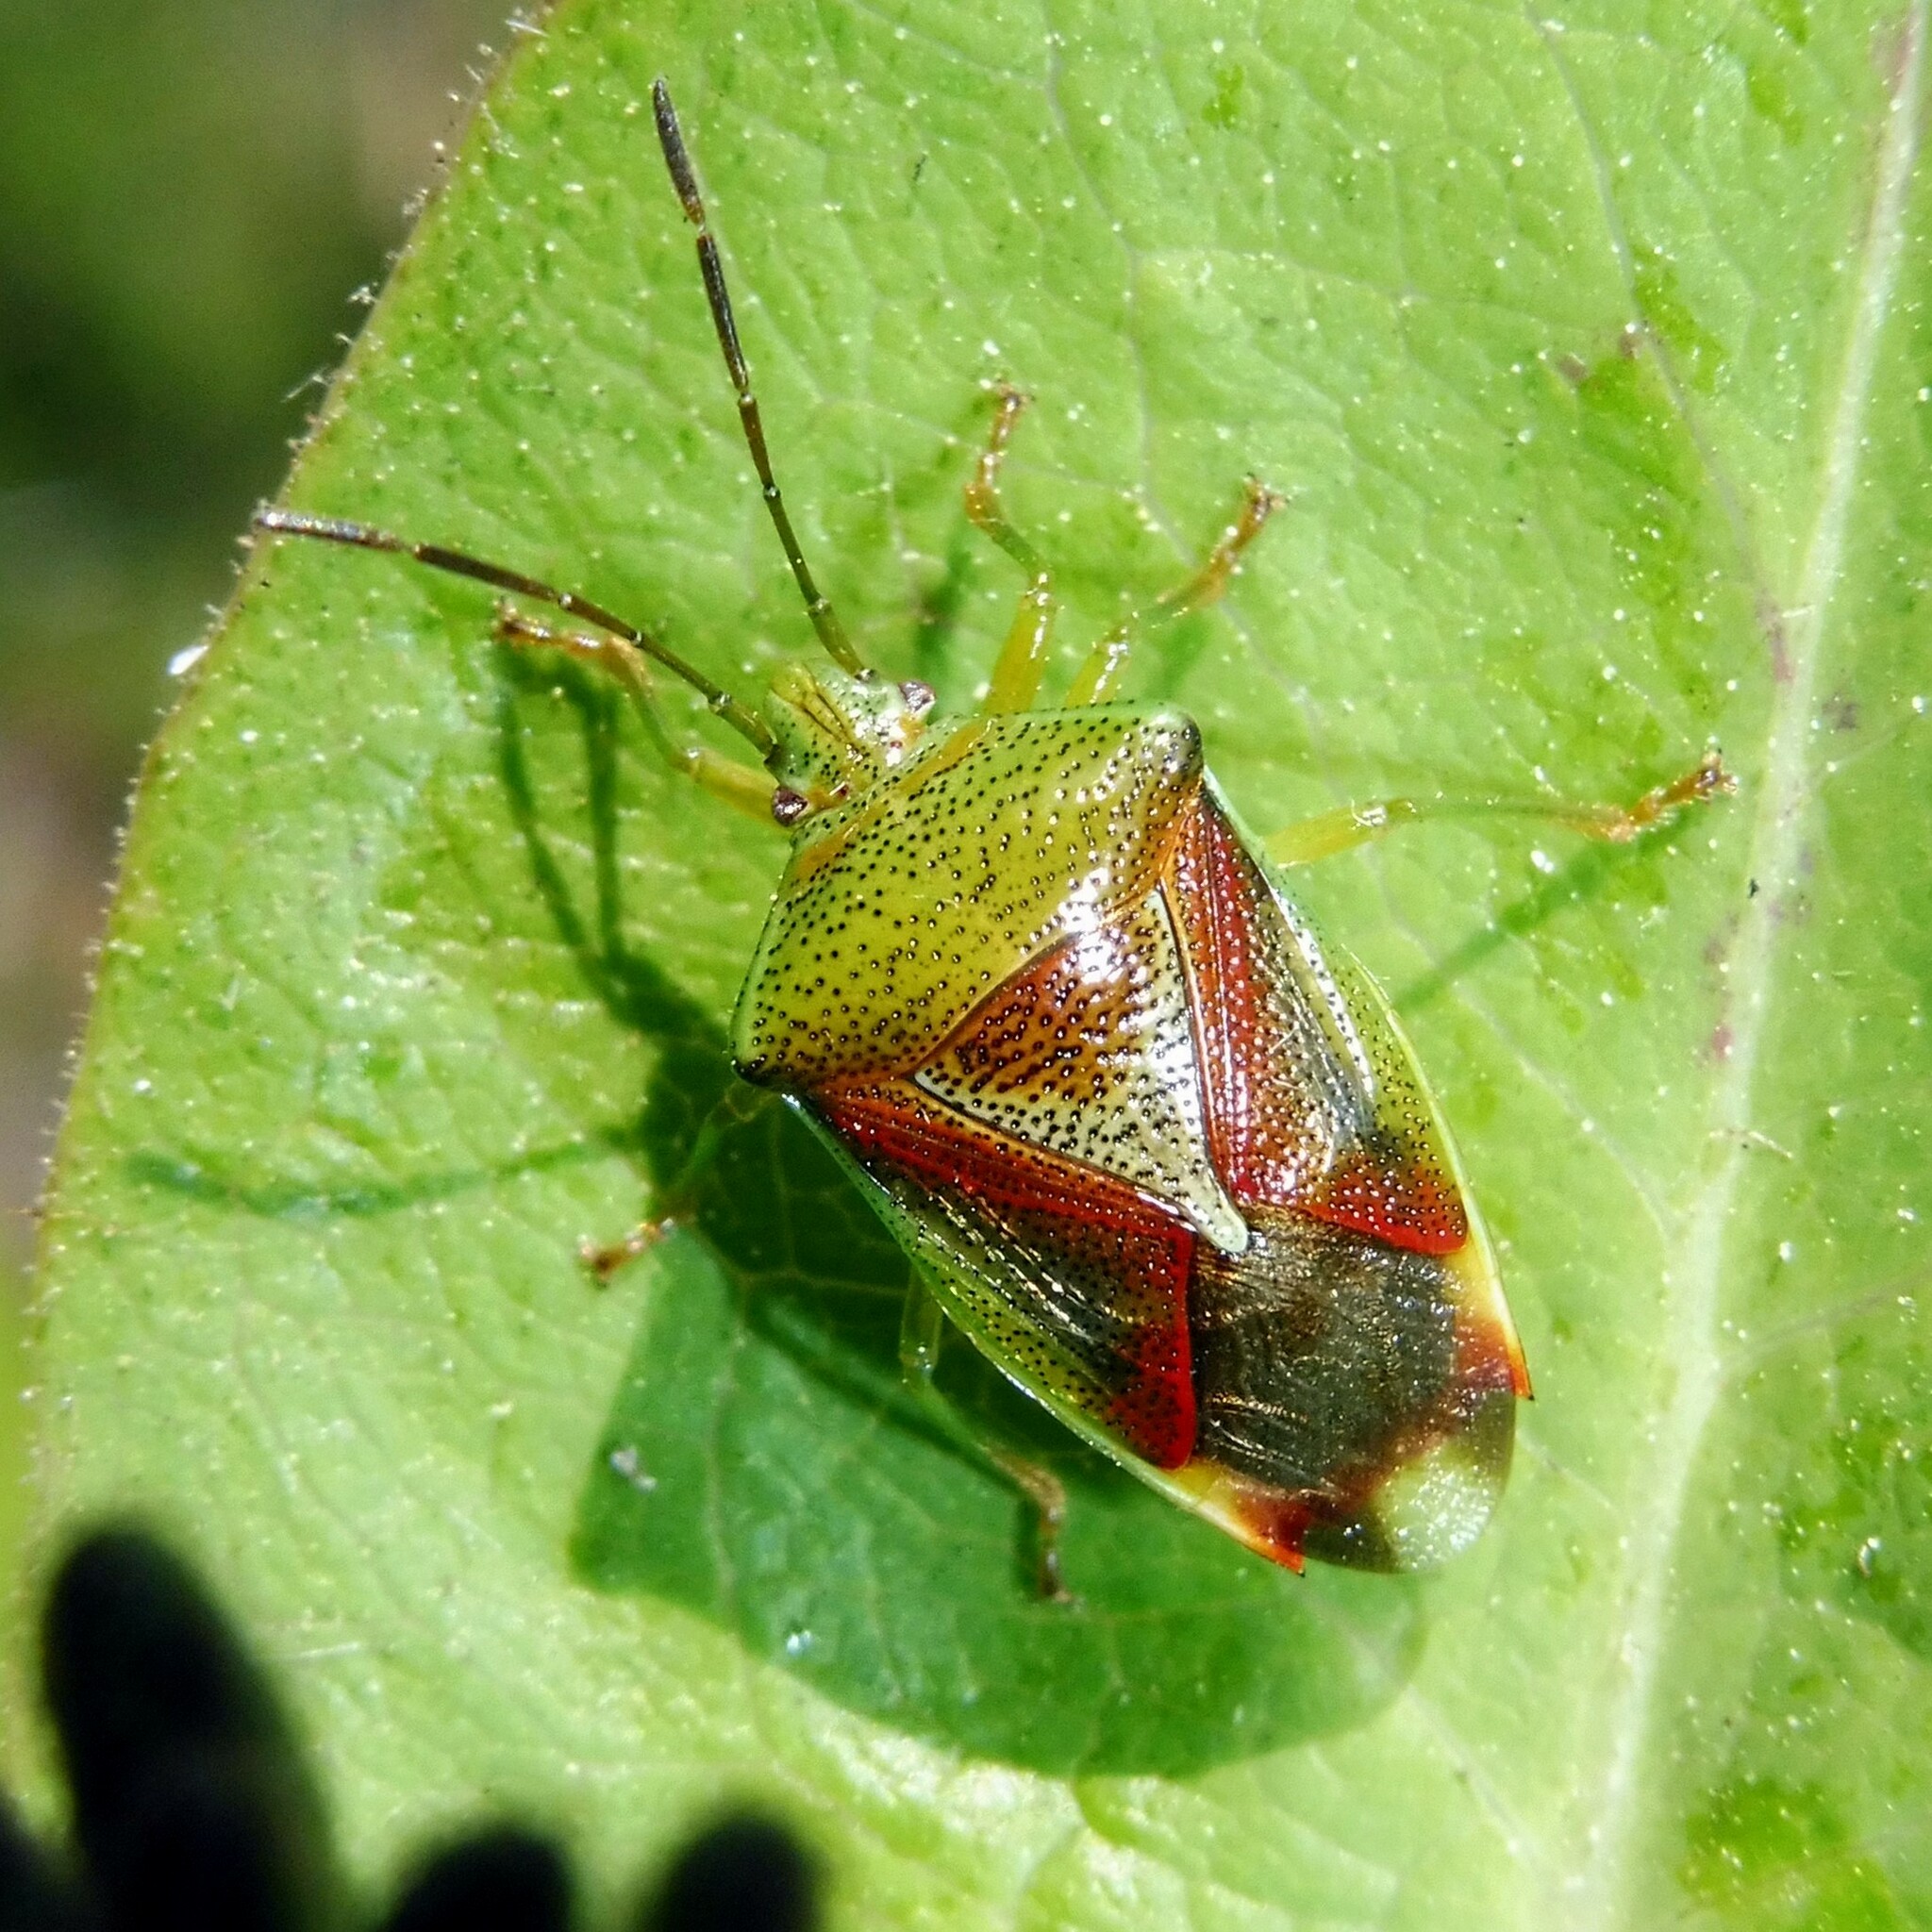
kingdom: Animalia
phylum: Arthropoda
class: Insecta
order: Hemiptera
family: Acanthosomatidae
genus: Elasmostethus
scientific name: Elasmostethus interstinctus
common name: Birch shieldbug
